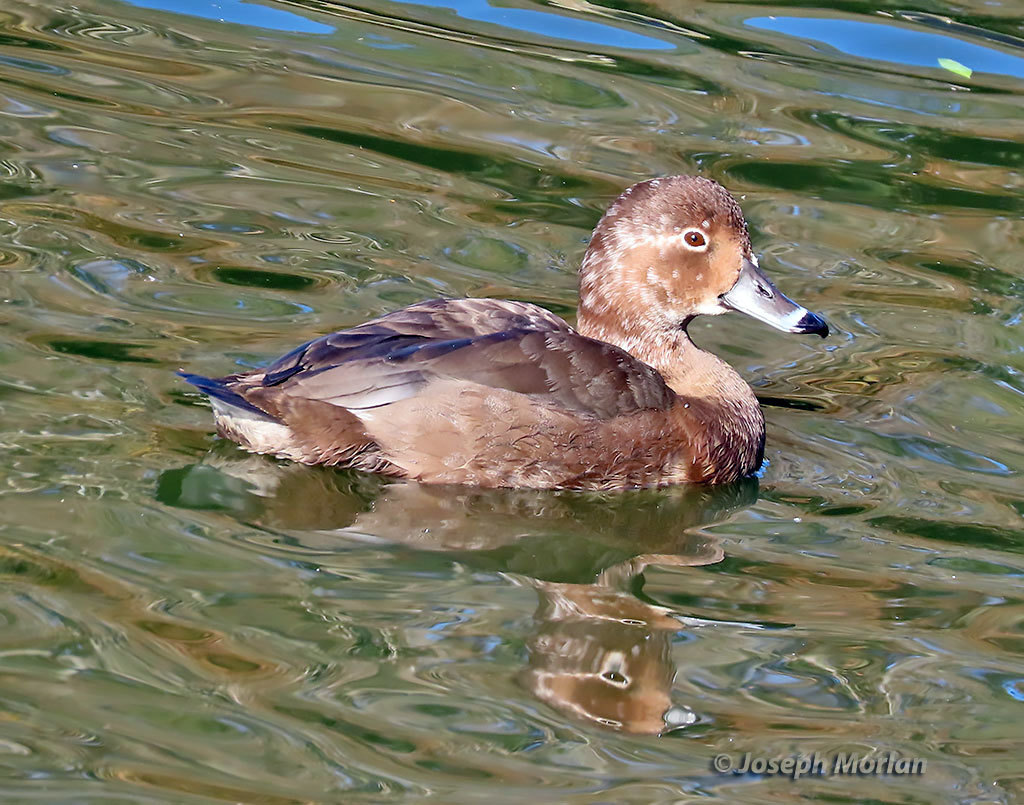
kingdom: Animalia
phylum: Chordata
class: Aves
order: Anseriformes
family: Anatidae
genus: Aythya
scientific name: Aythya americana
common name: Redhead
